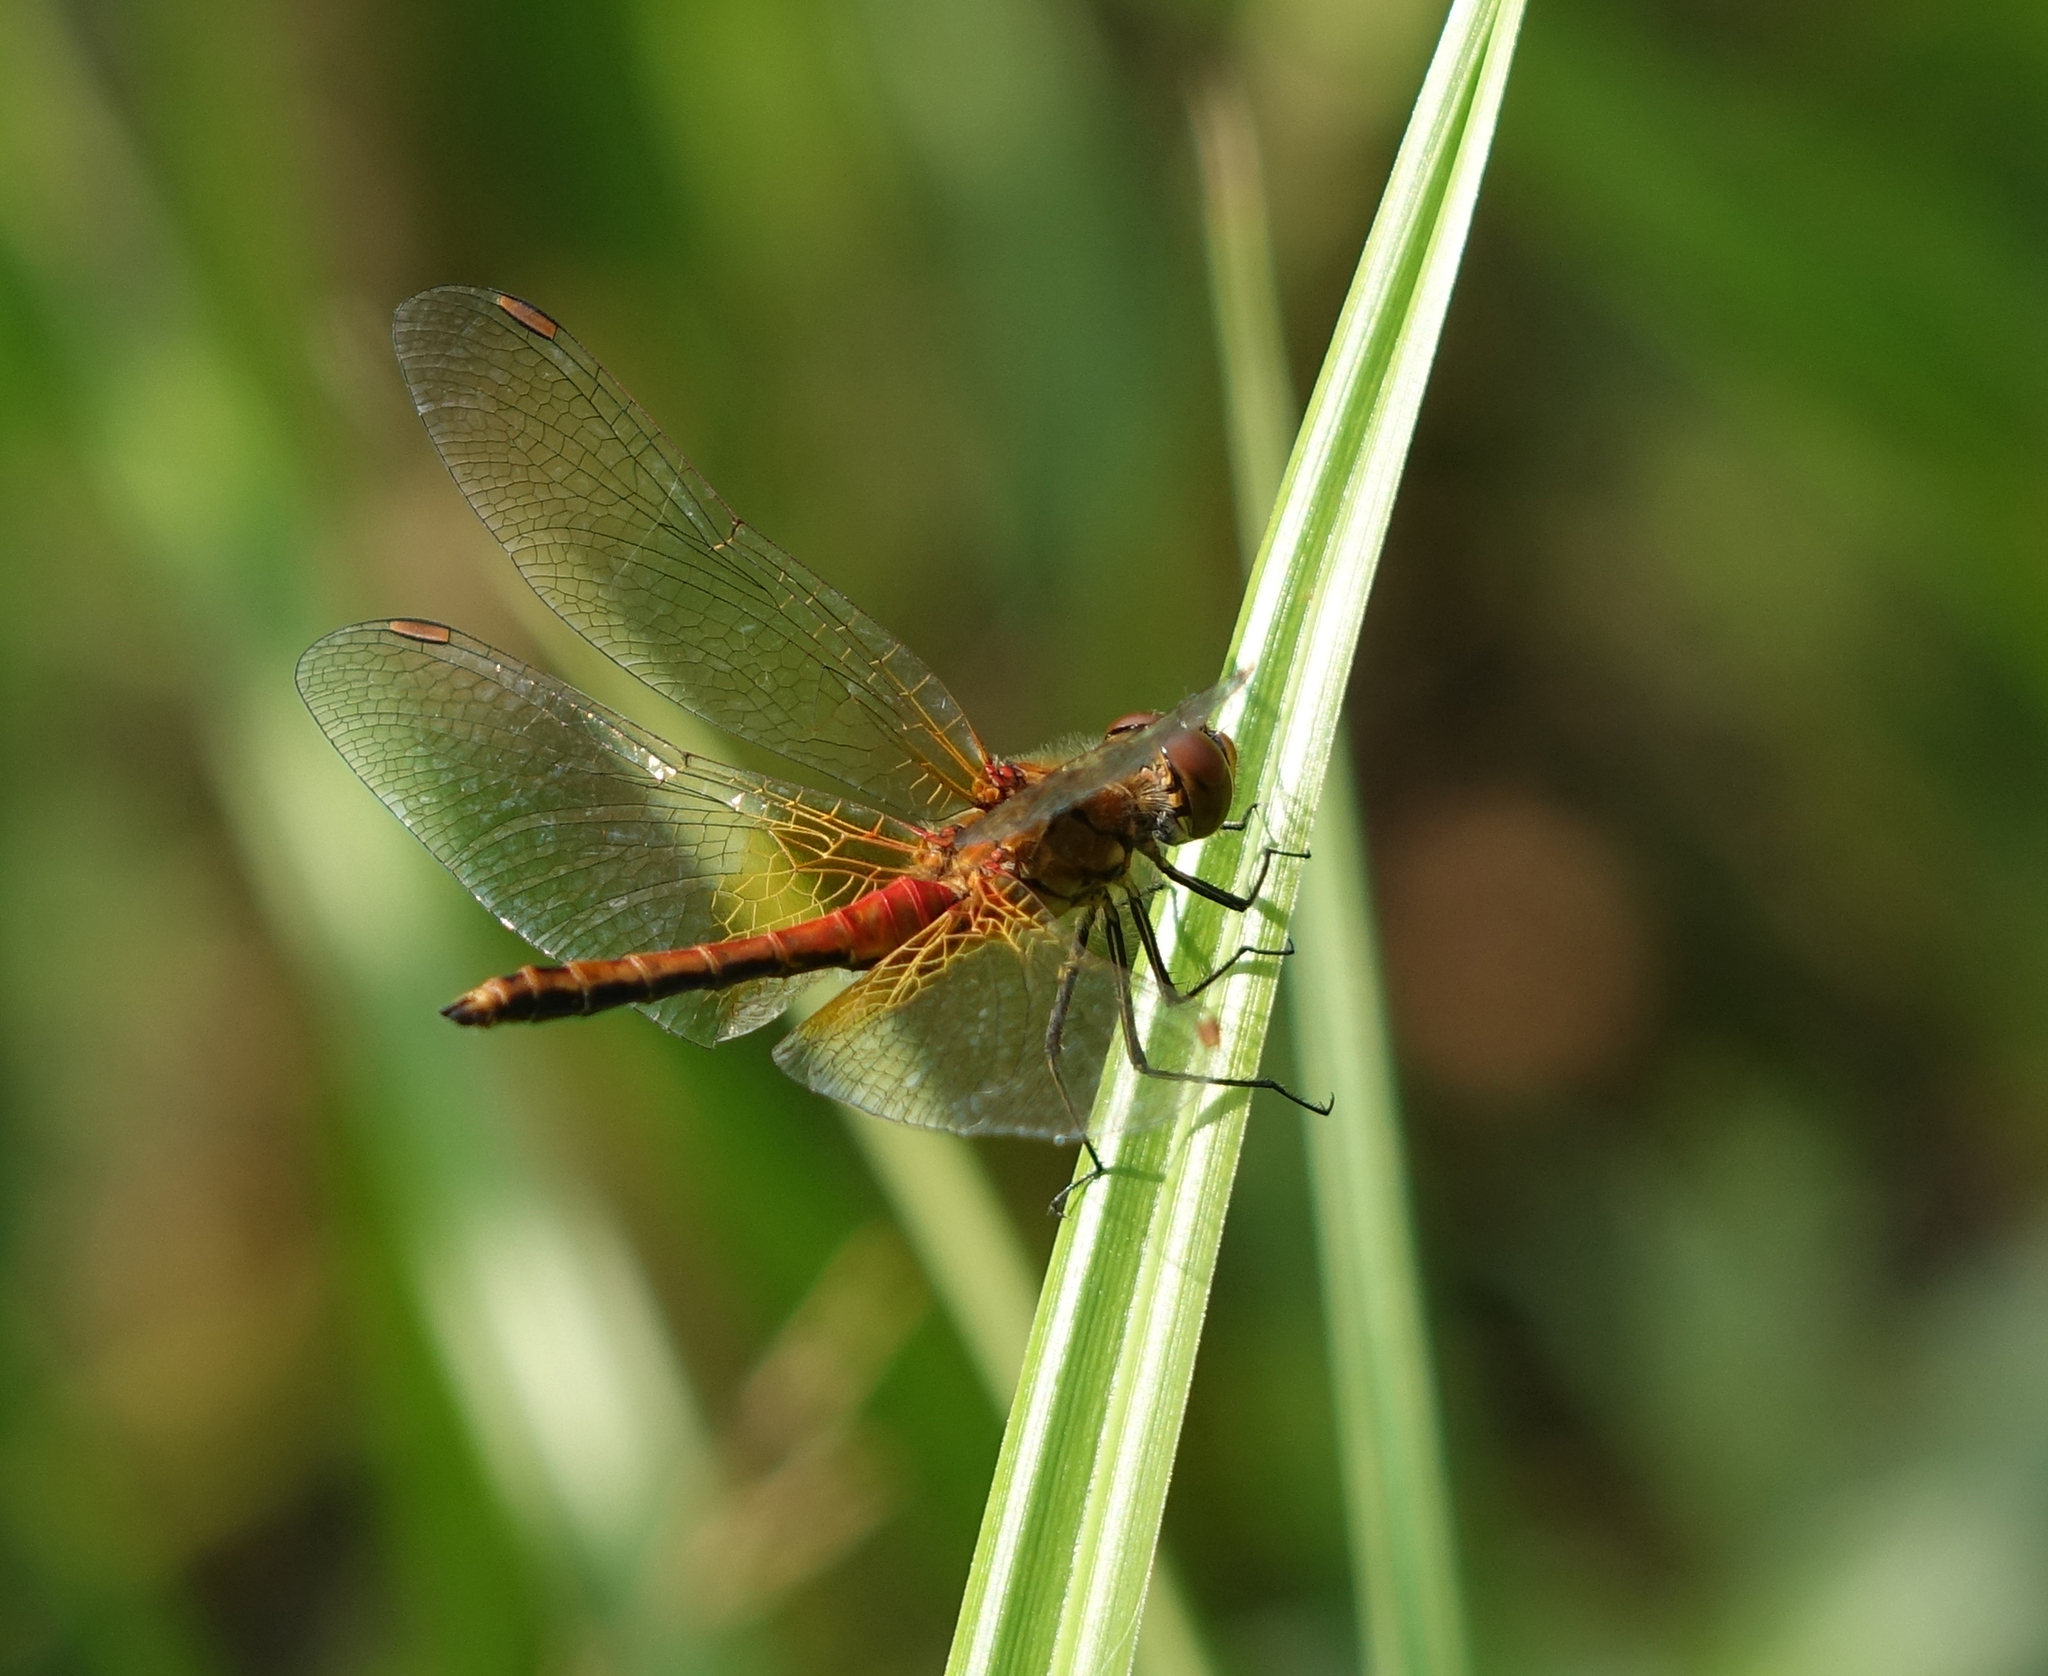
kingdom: Animalia
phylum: Arthropoda
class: Insecta
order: Odonata
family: Libellulidae
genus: Sympetrum
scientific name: Sympetrum flaveolum
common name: Yellow-winged darter
